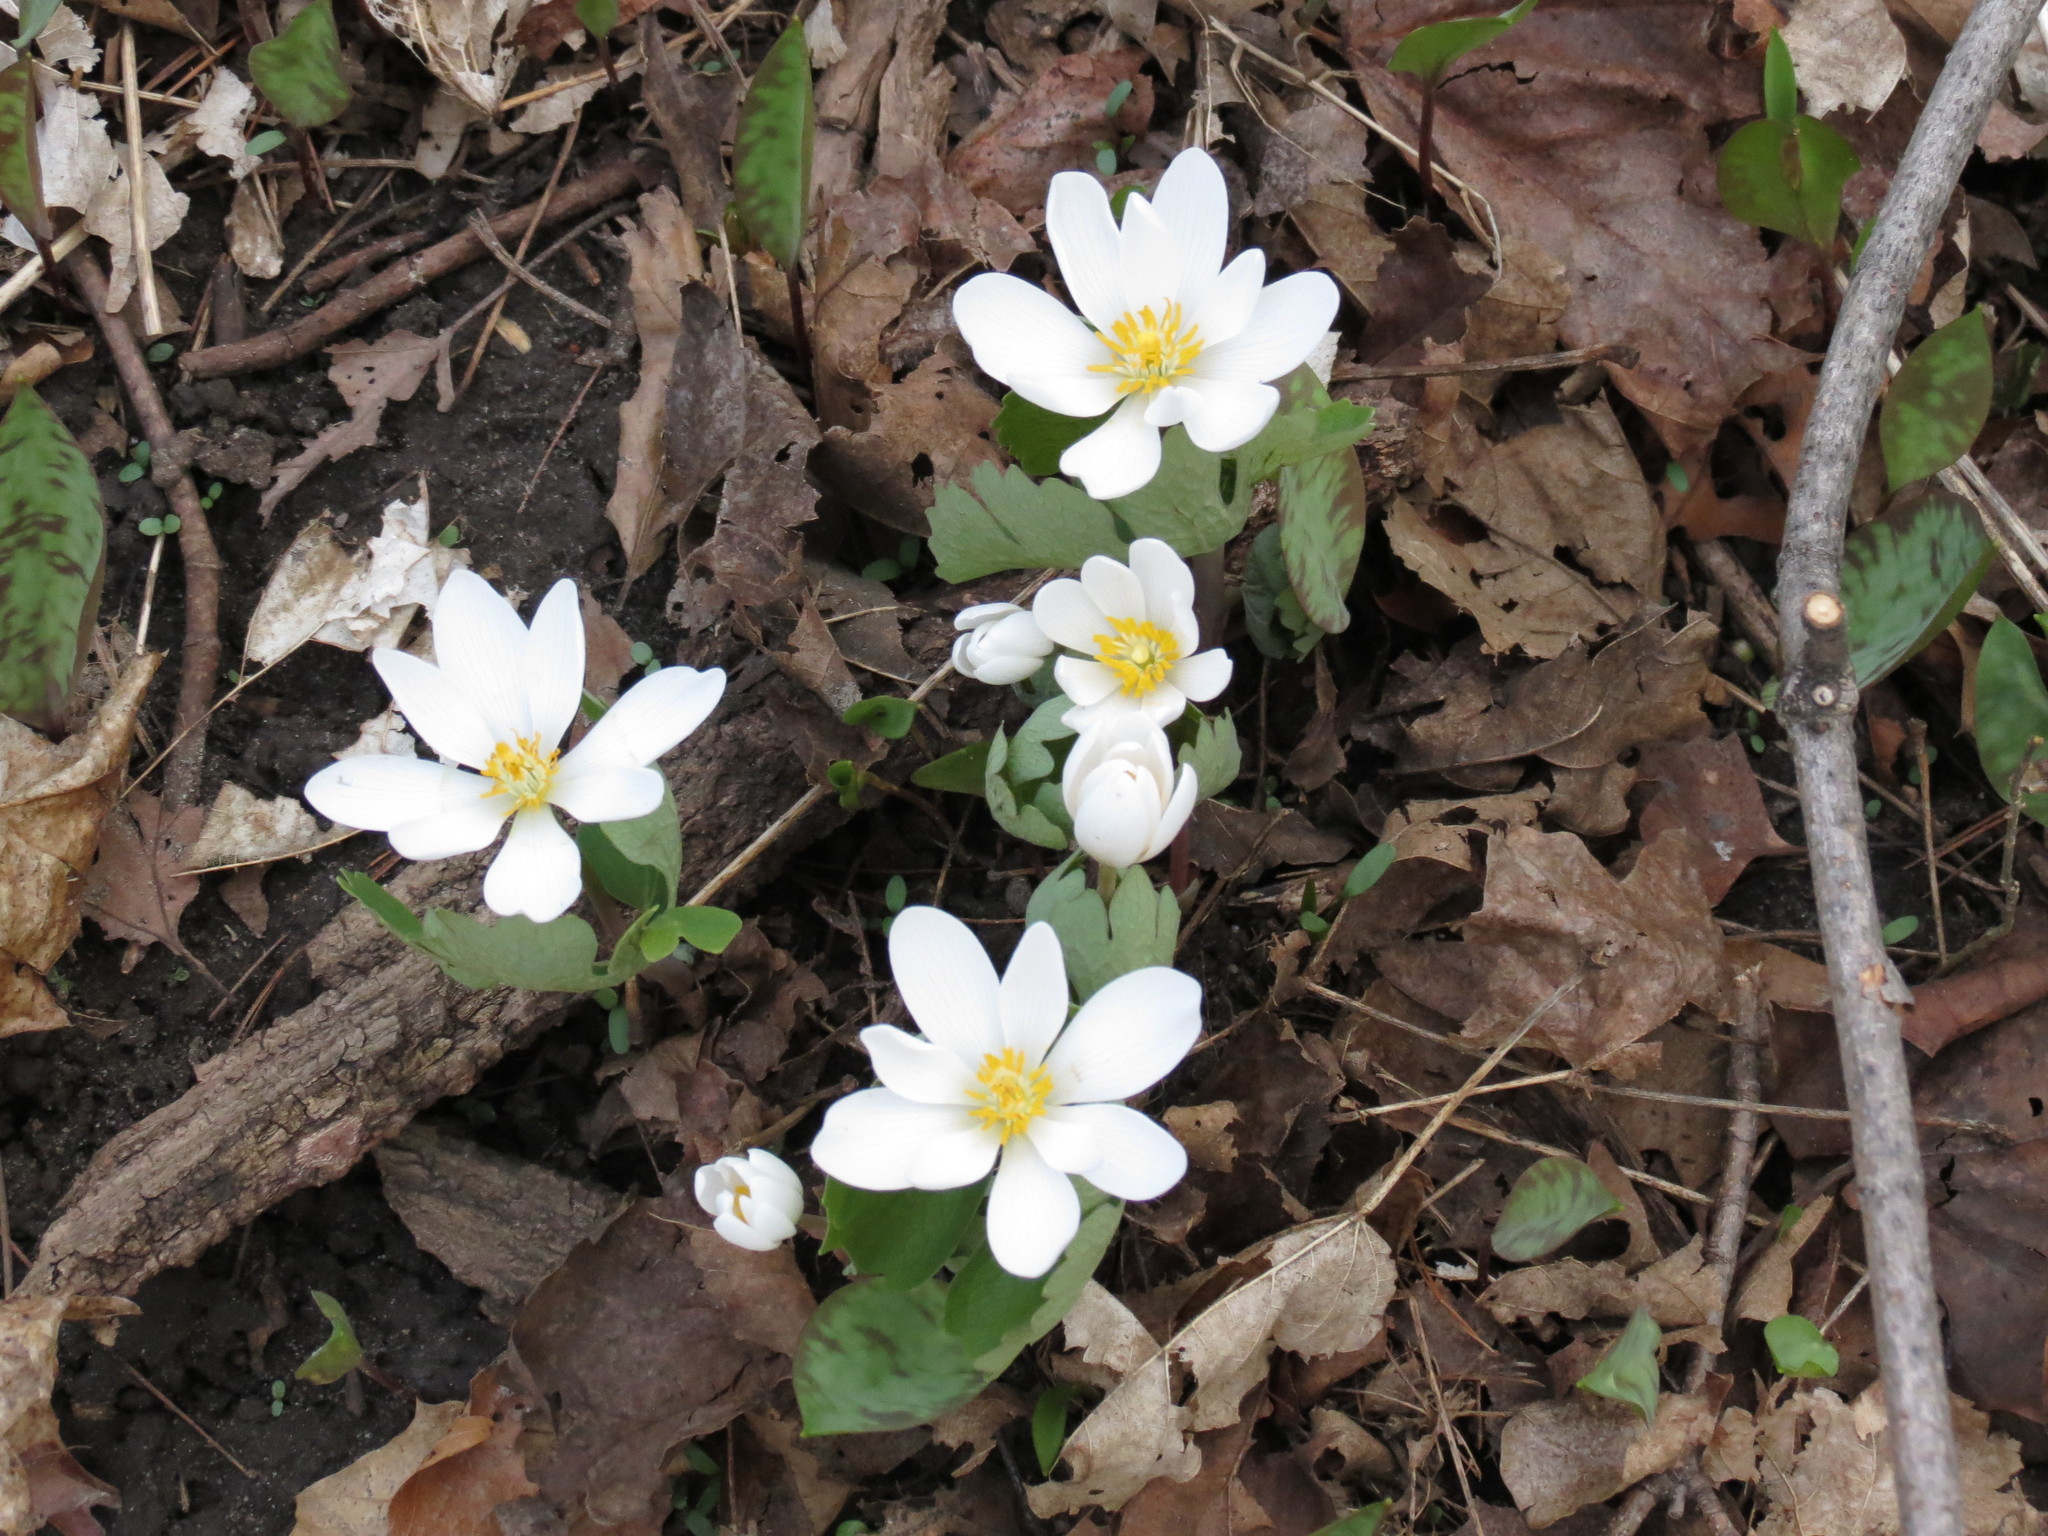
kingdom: Plantae
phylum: Tracheophyta
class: Magnoliopsida
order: Ranunculales
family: Papaveraceae
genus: Sanguinaria
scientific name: Sanguinaria canadensis
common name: Bloodroot
